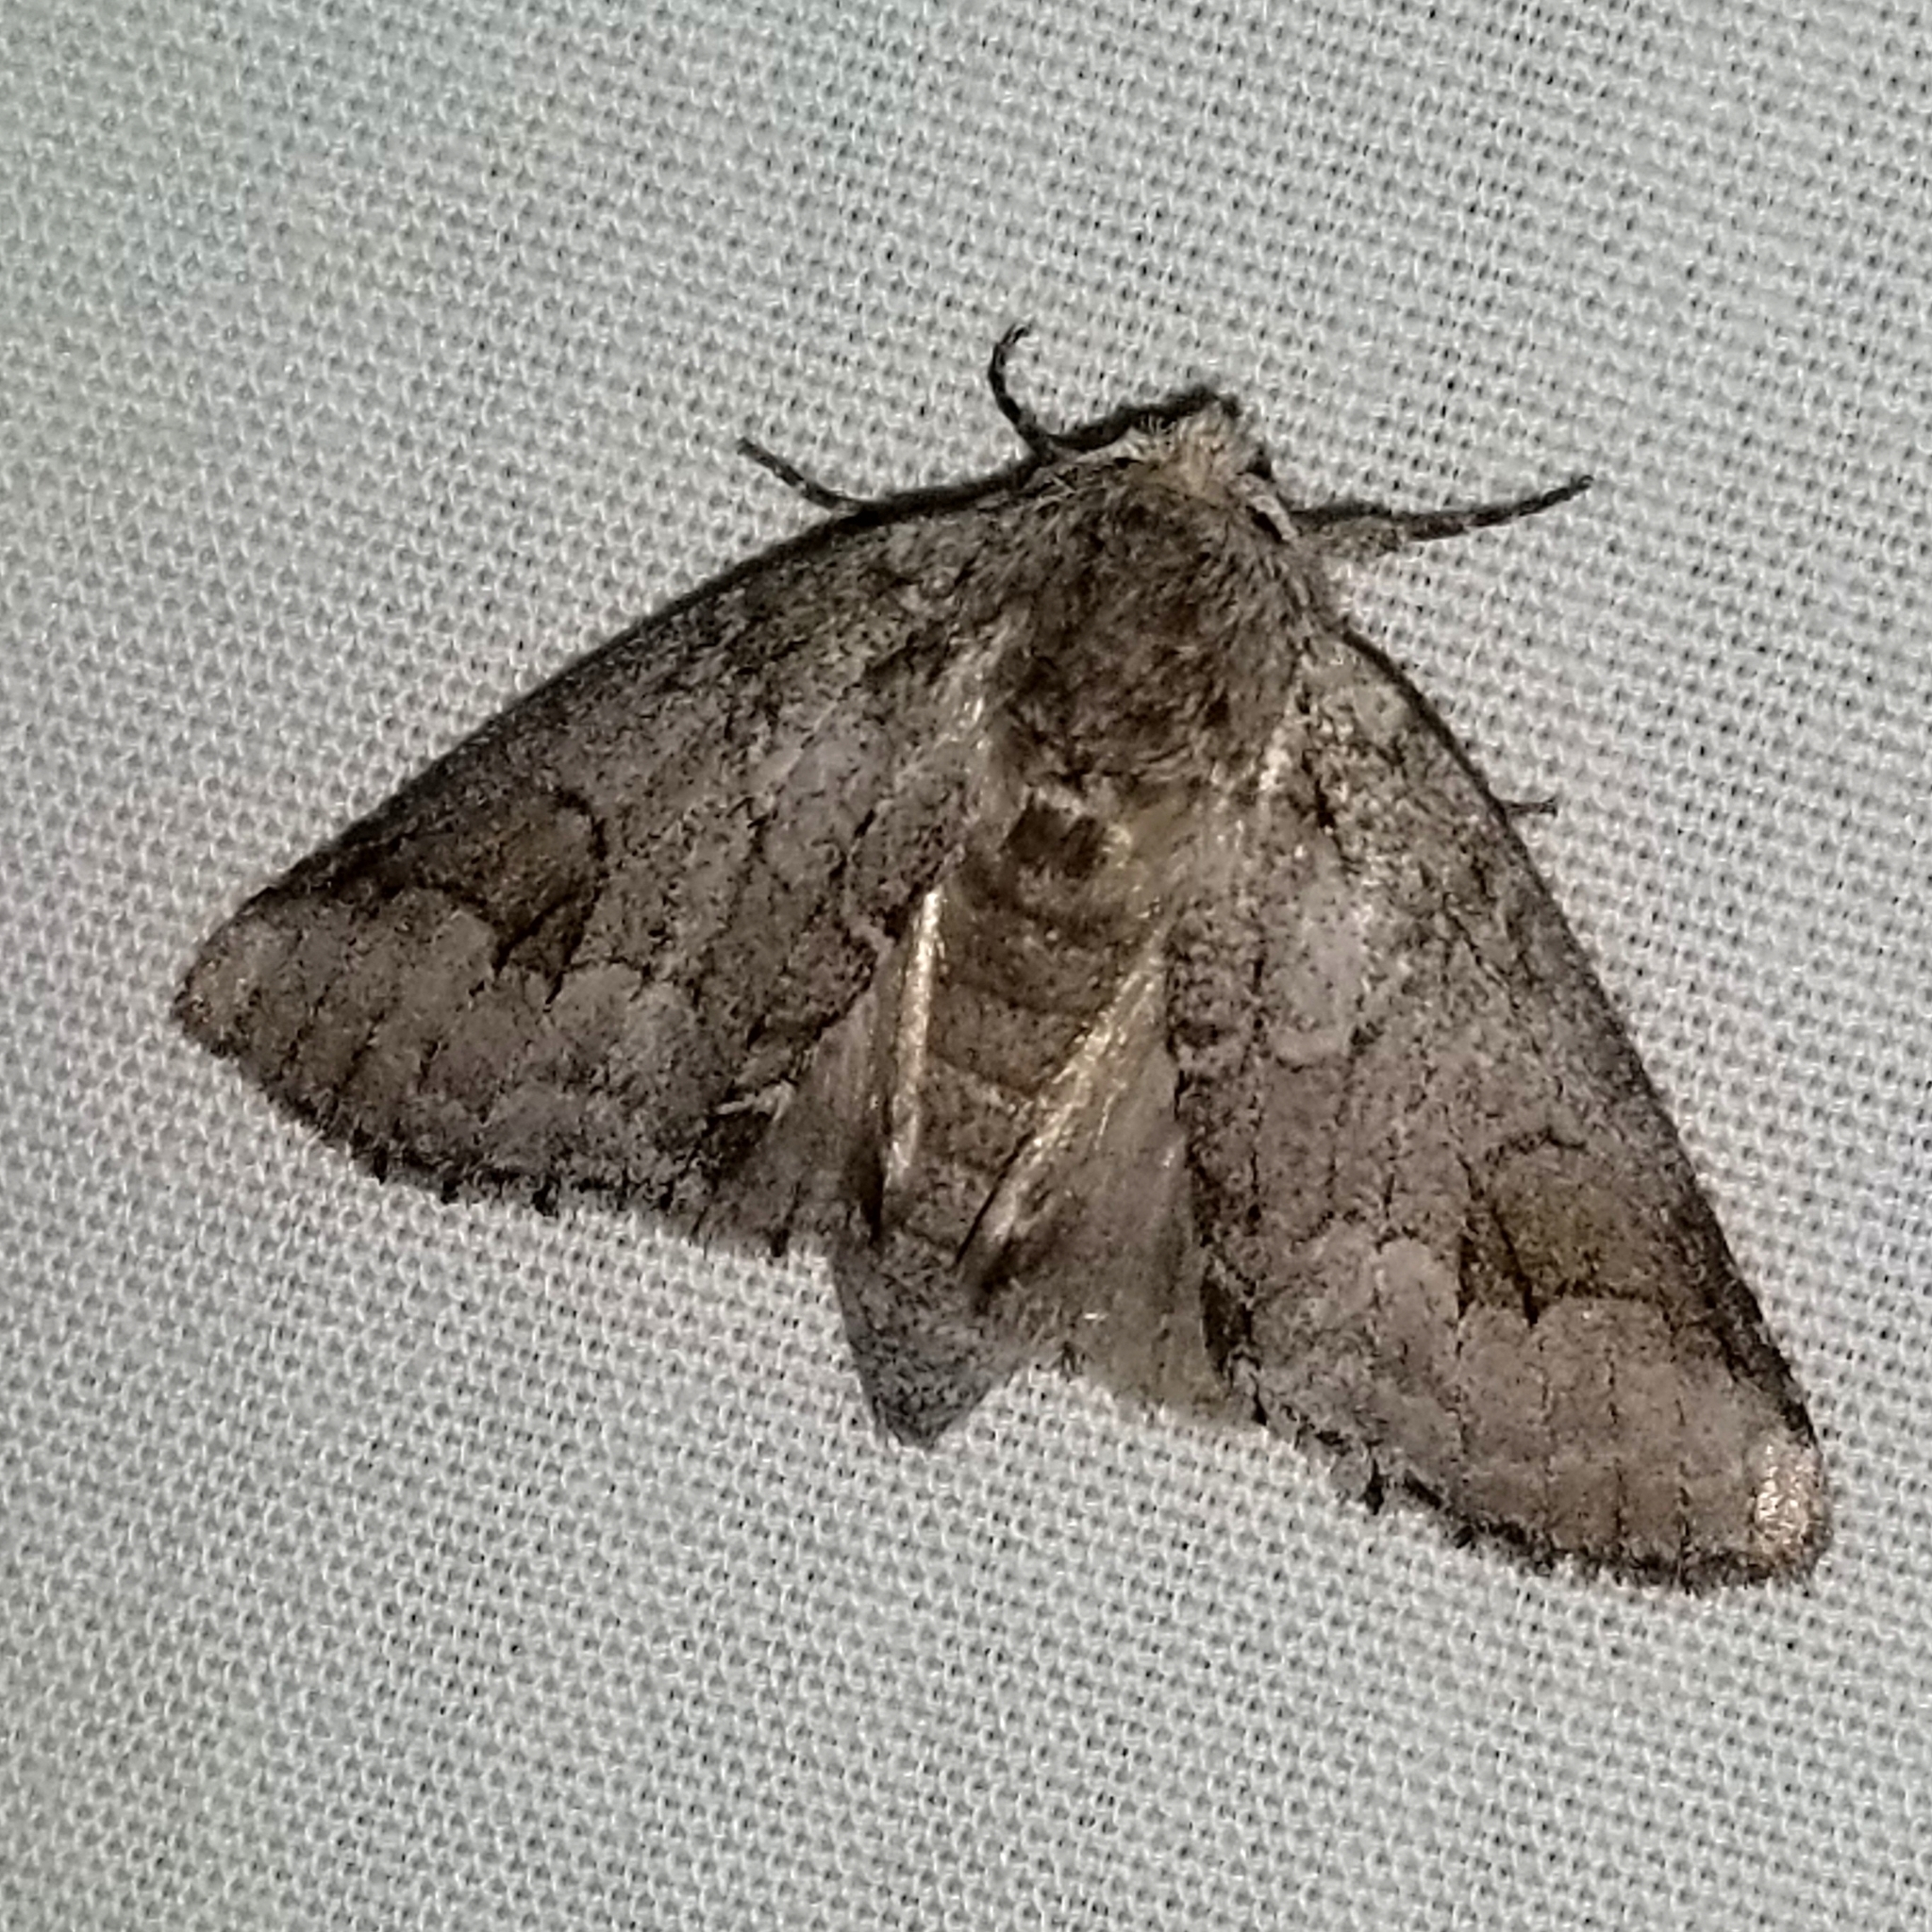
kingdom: Animalia
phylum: Arthropoda
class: Insecta
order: Lepidoptera
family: Notodontidae
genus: Lochmaeus
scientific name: Lochmaeus bilineata
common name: Double-lined prominent
